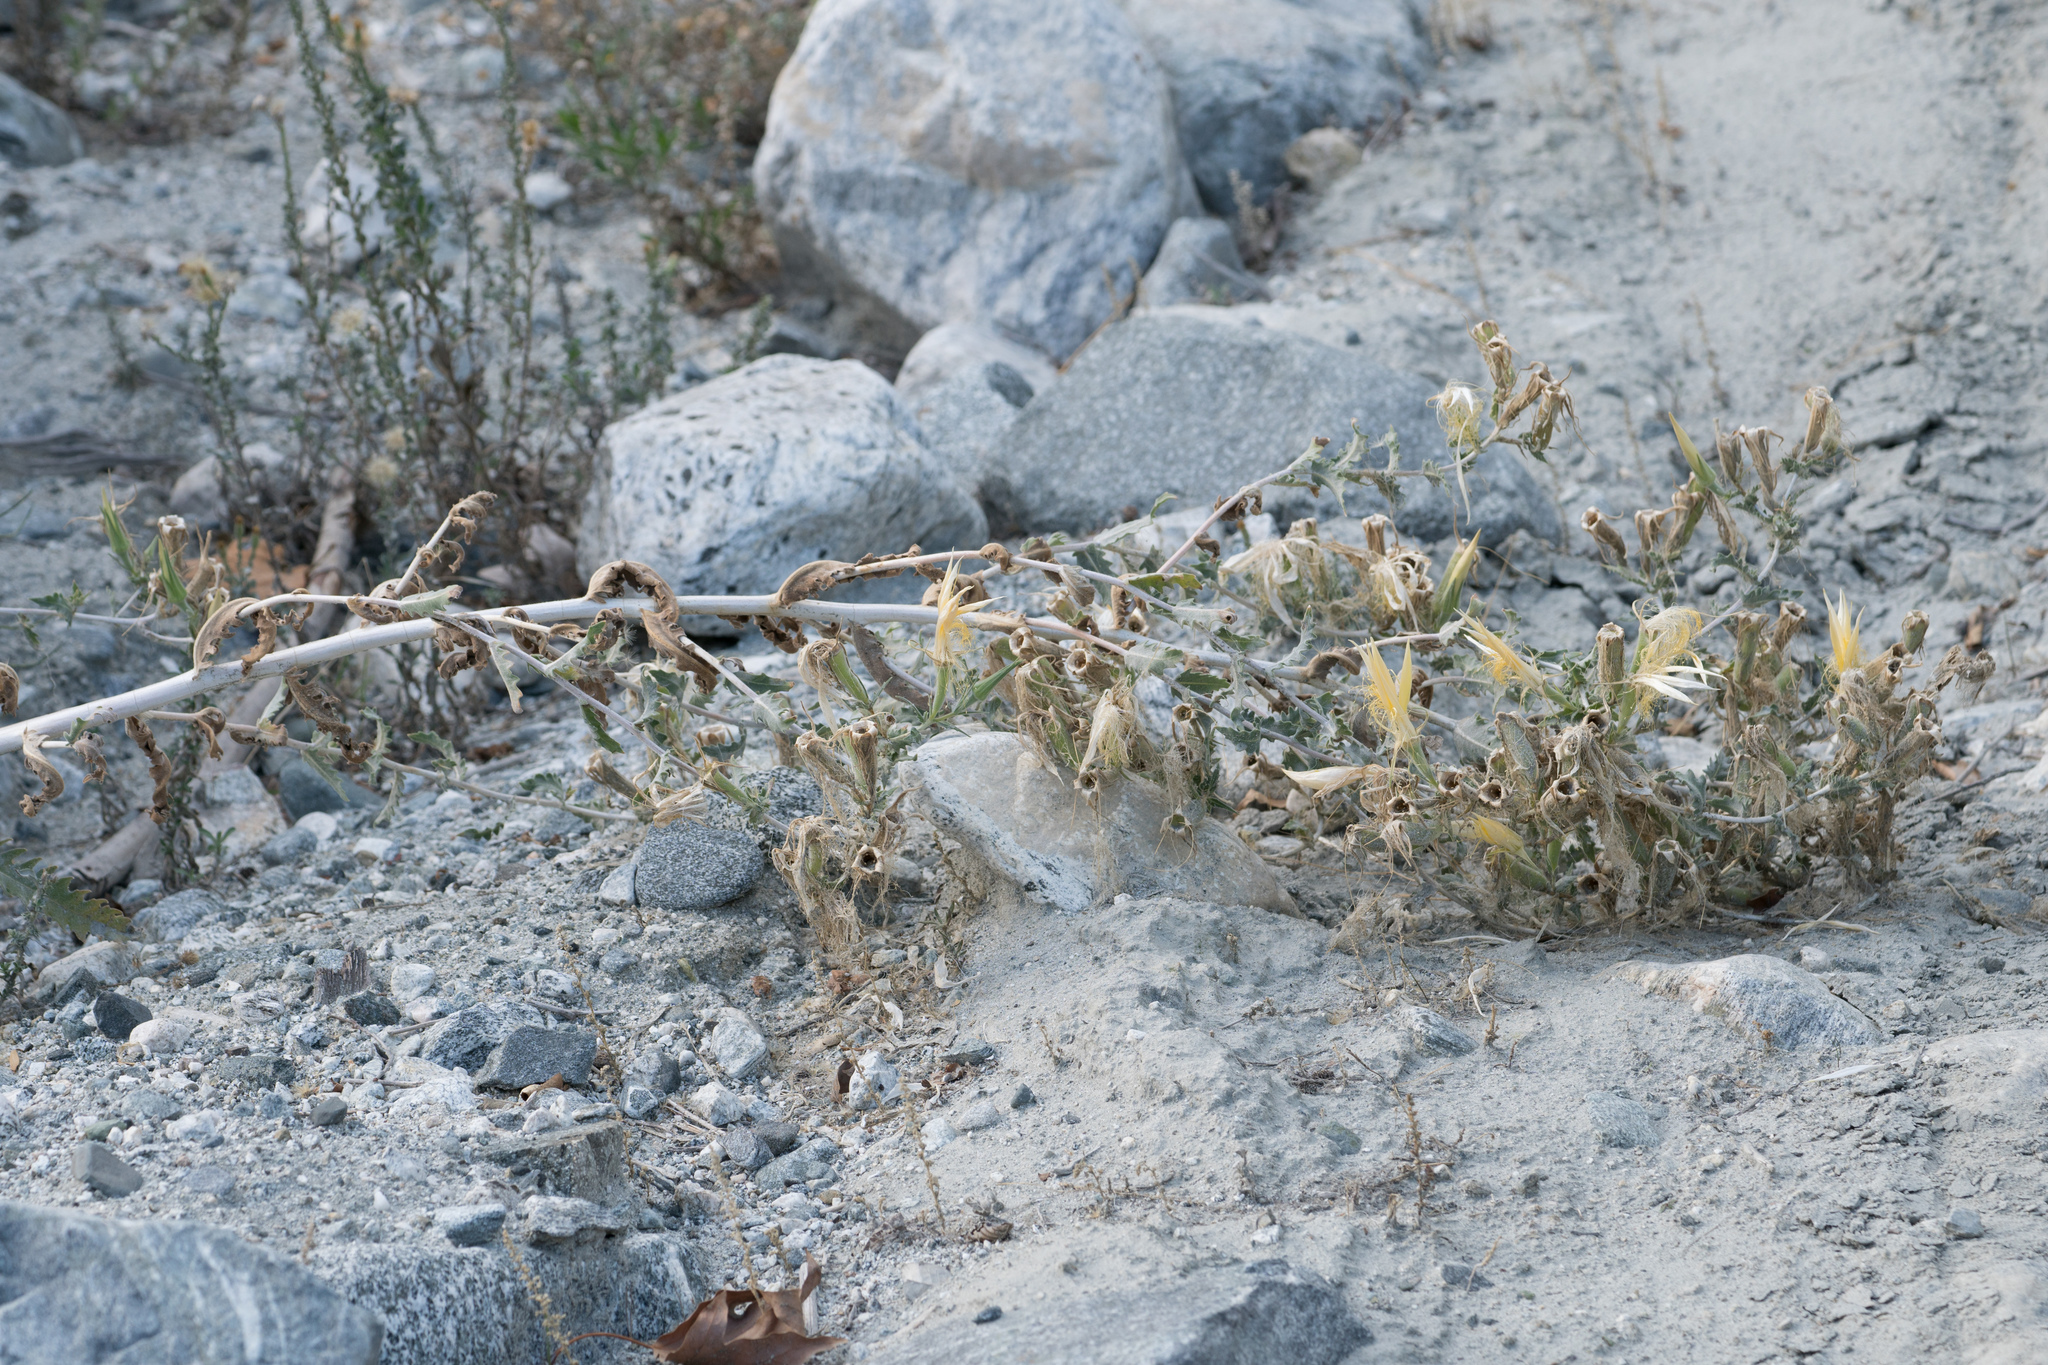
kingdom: Plantae
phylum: Tracheophyta
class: Magnoliopsida
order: Cornales
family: Loasaceae
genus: Mentzelia
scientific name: Mentzelia laevicaulis
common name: Smooth-stem blazingstar
